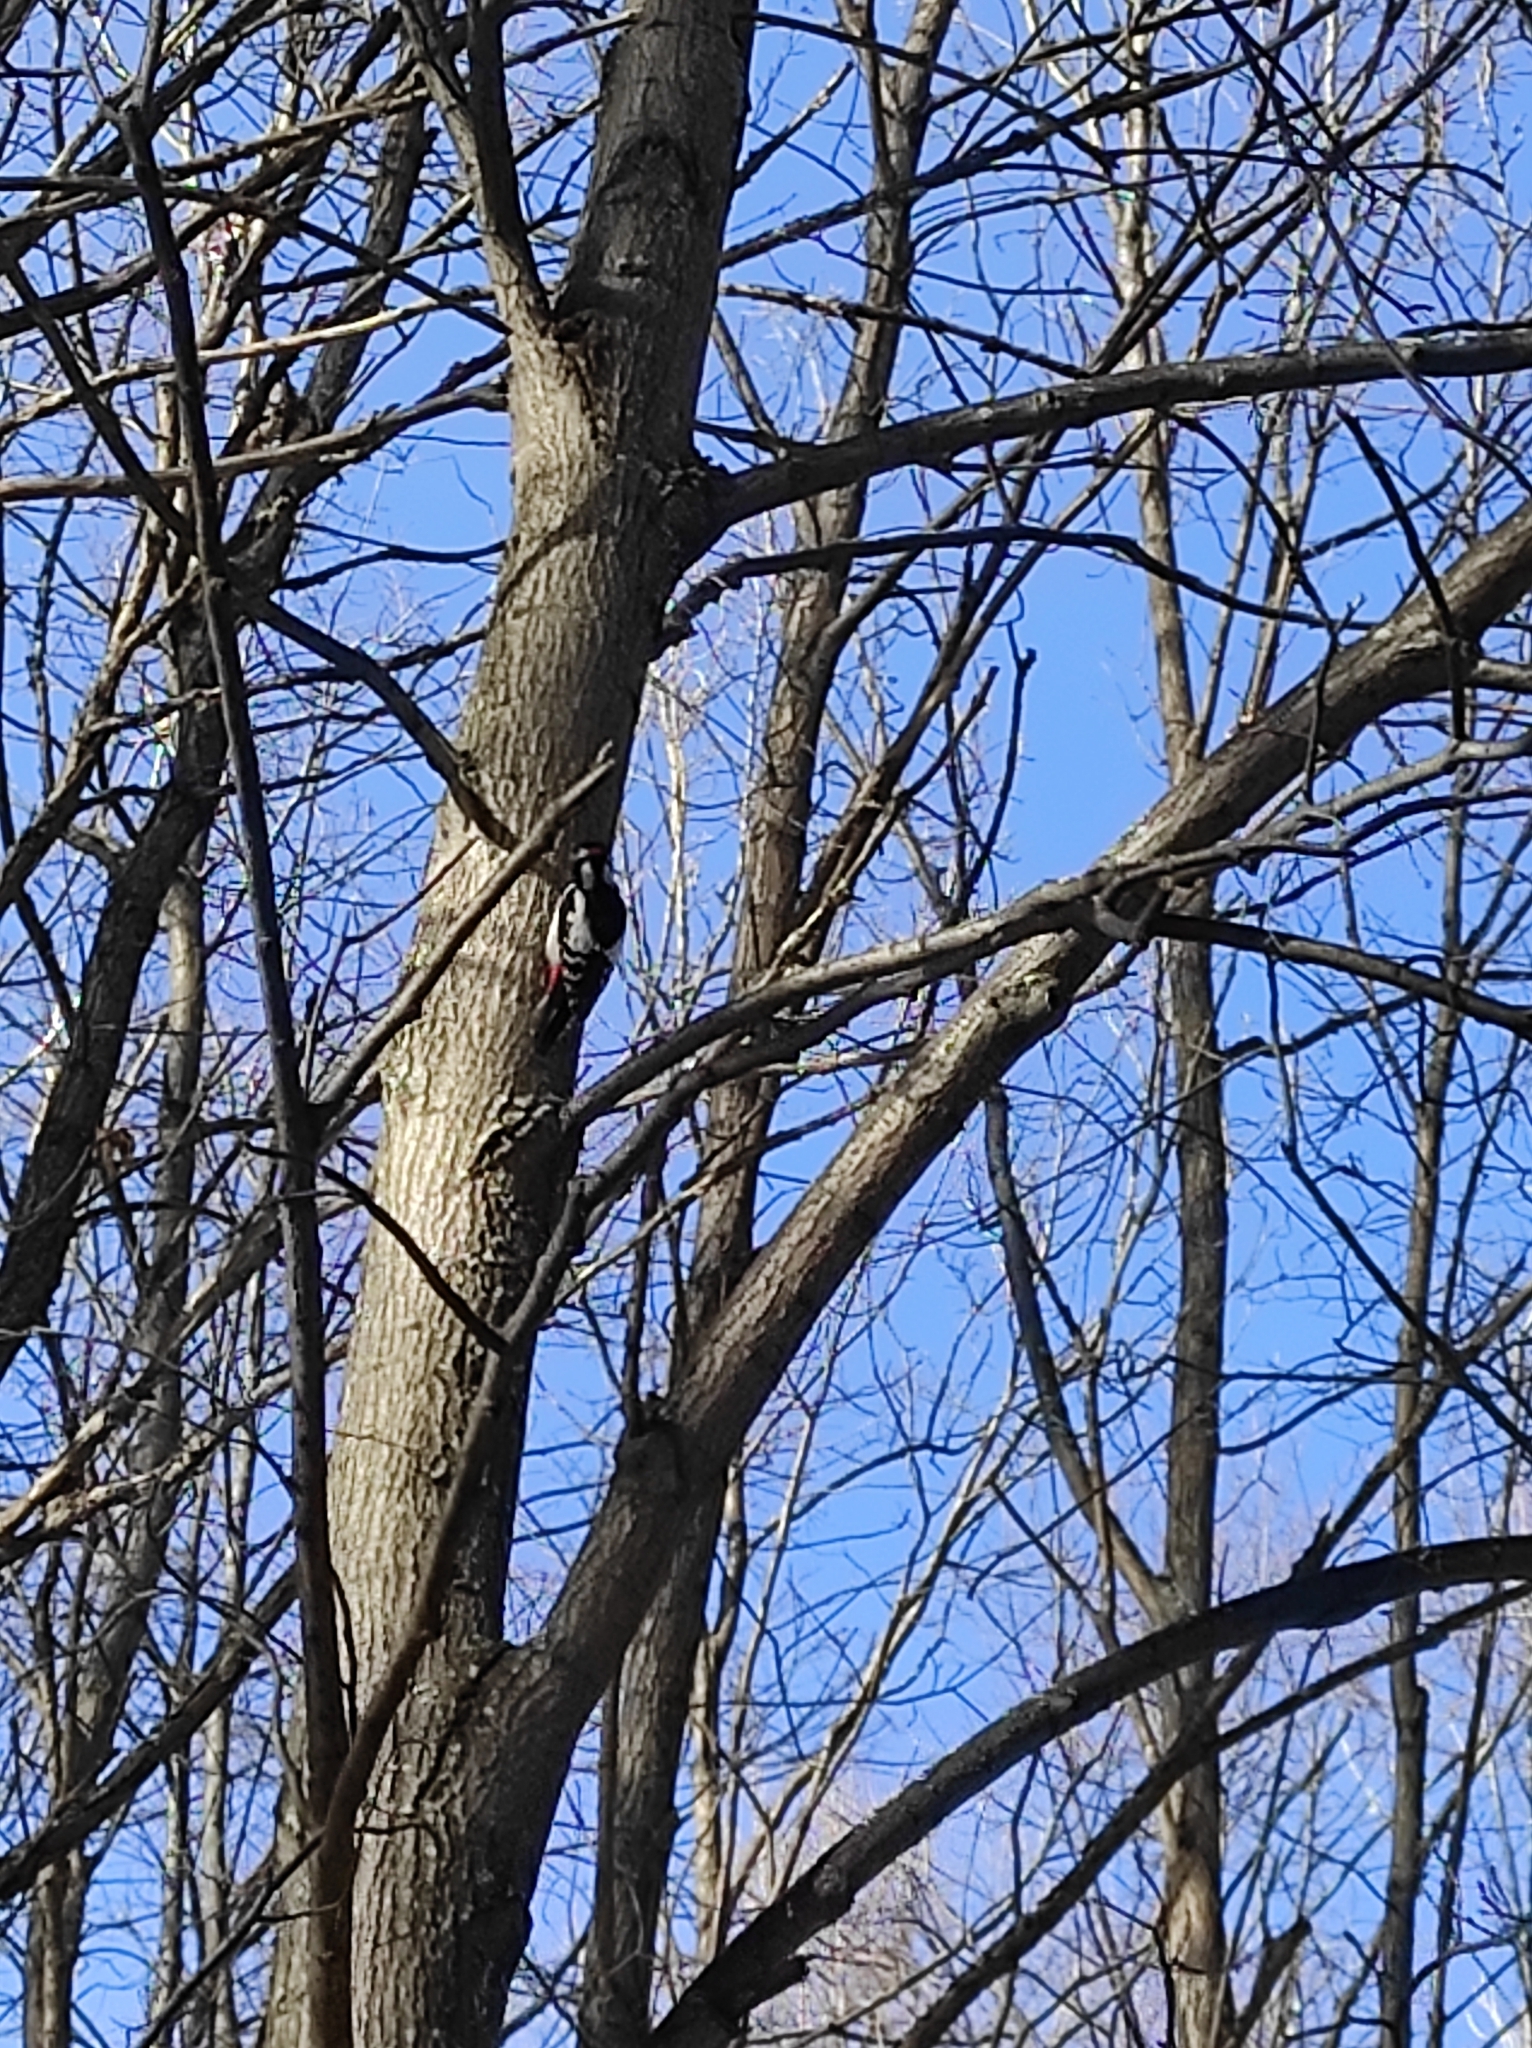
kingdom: Animalia
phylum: Chordata
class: Aves
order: Piciformes
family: Picidae
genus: Dendrocopos
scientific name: Dendrocopos major
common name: Great spotted woodpecker
